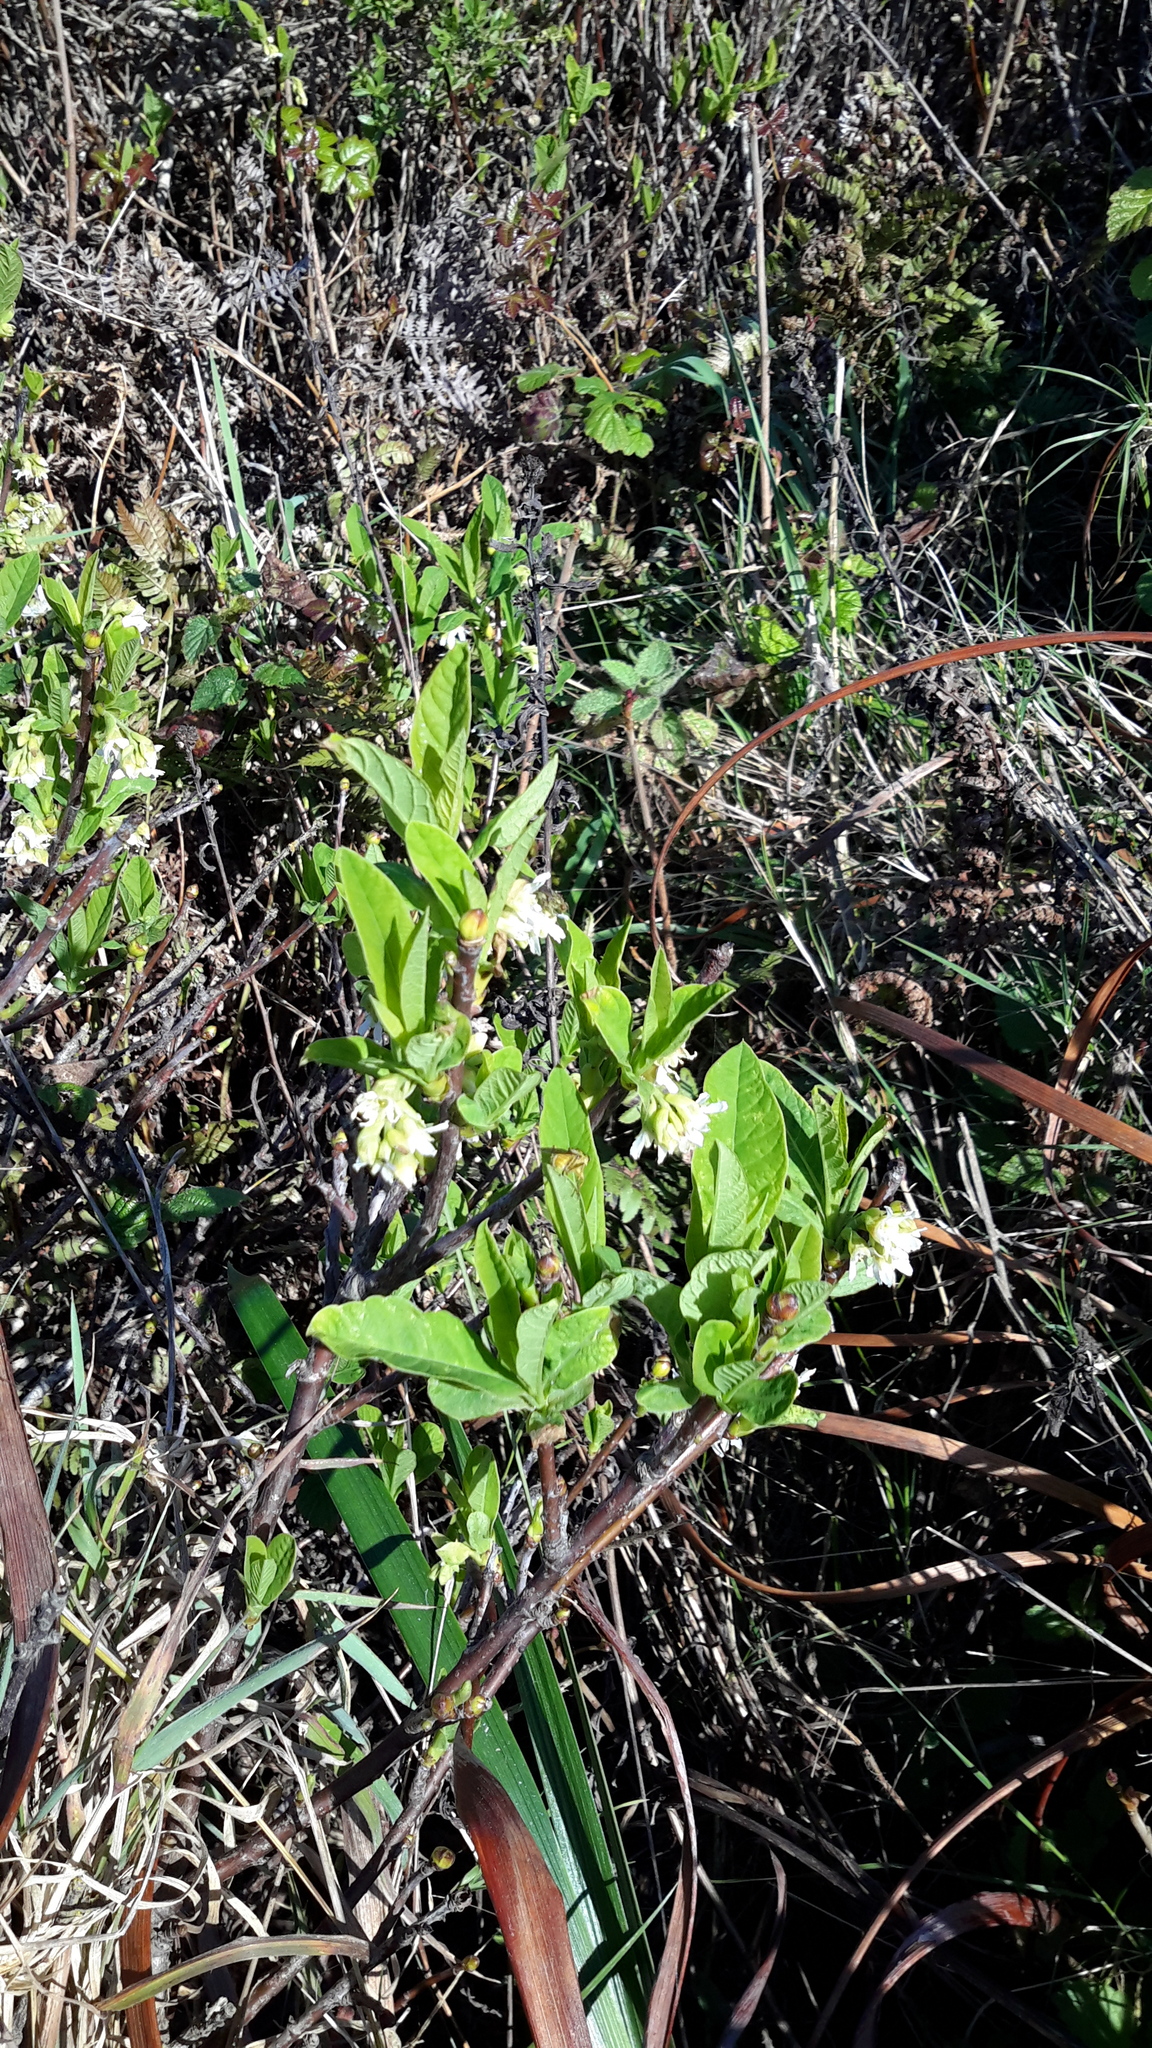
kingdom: Plantae
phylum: Tracheophyta
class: Magnoliopsida
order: Rosales
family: Rosaceae
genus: Oemleria
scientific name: Oemleria cerasiformis
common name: Osoberry
